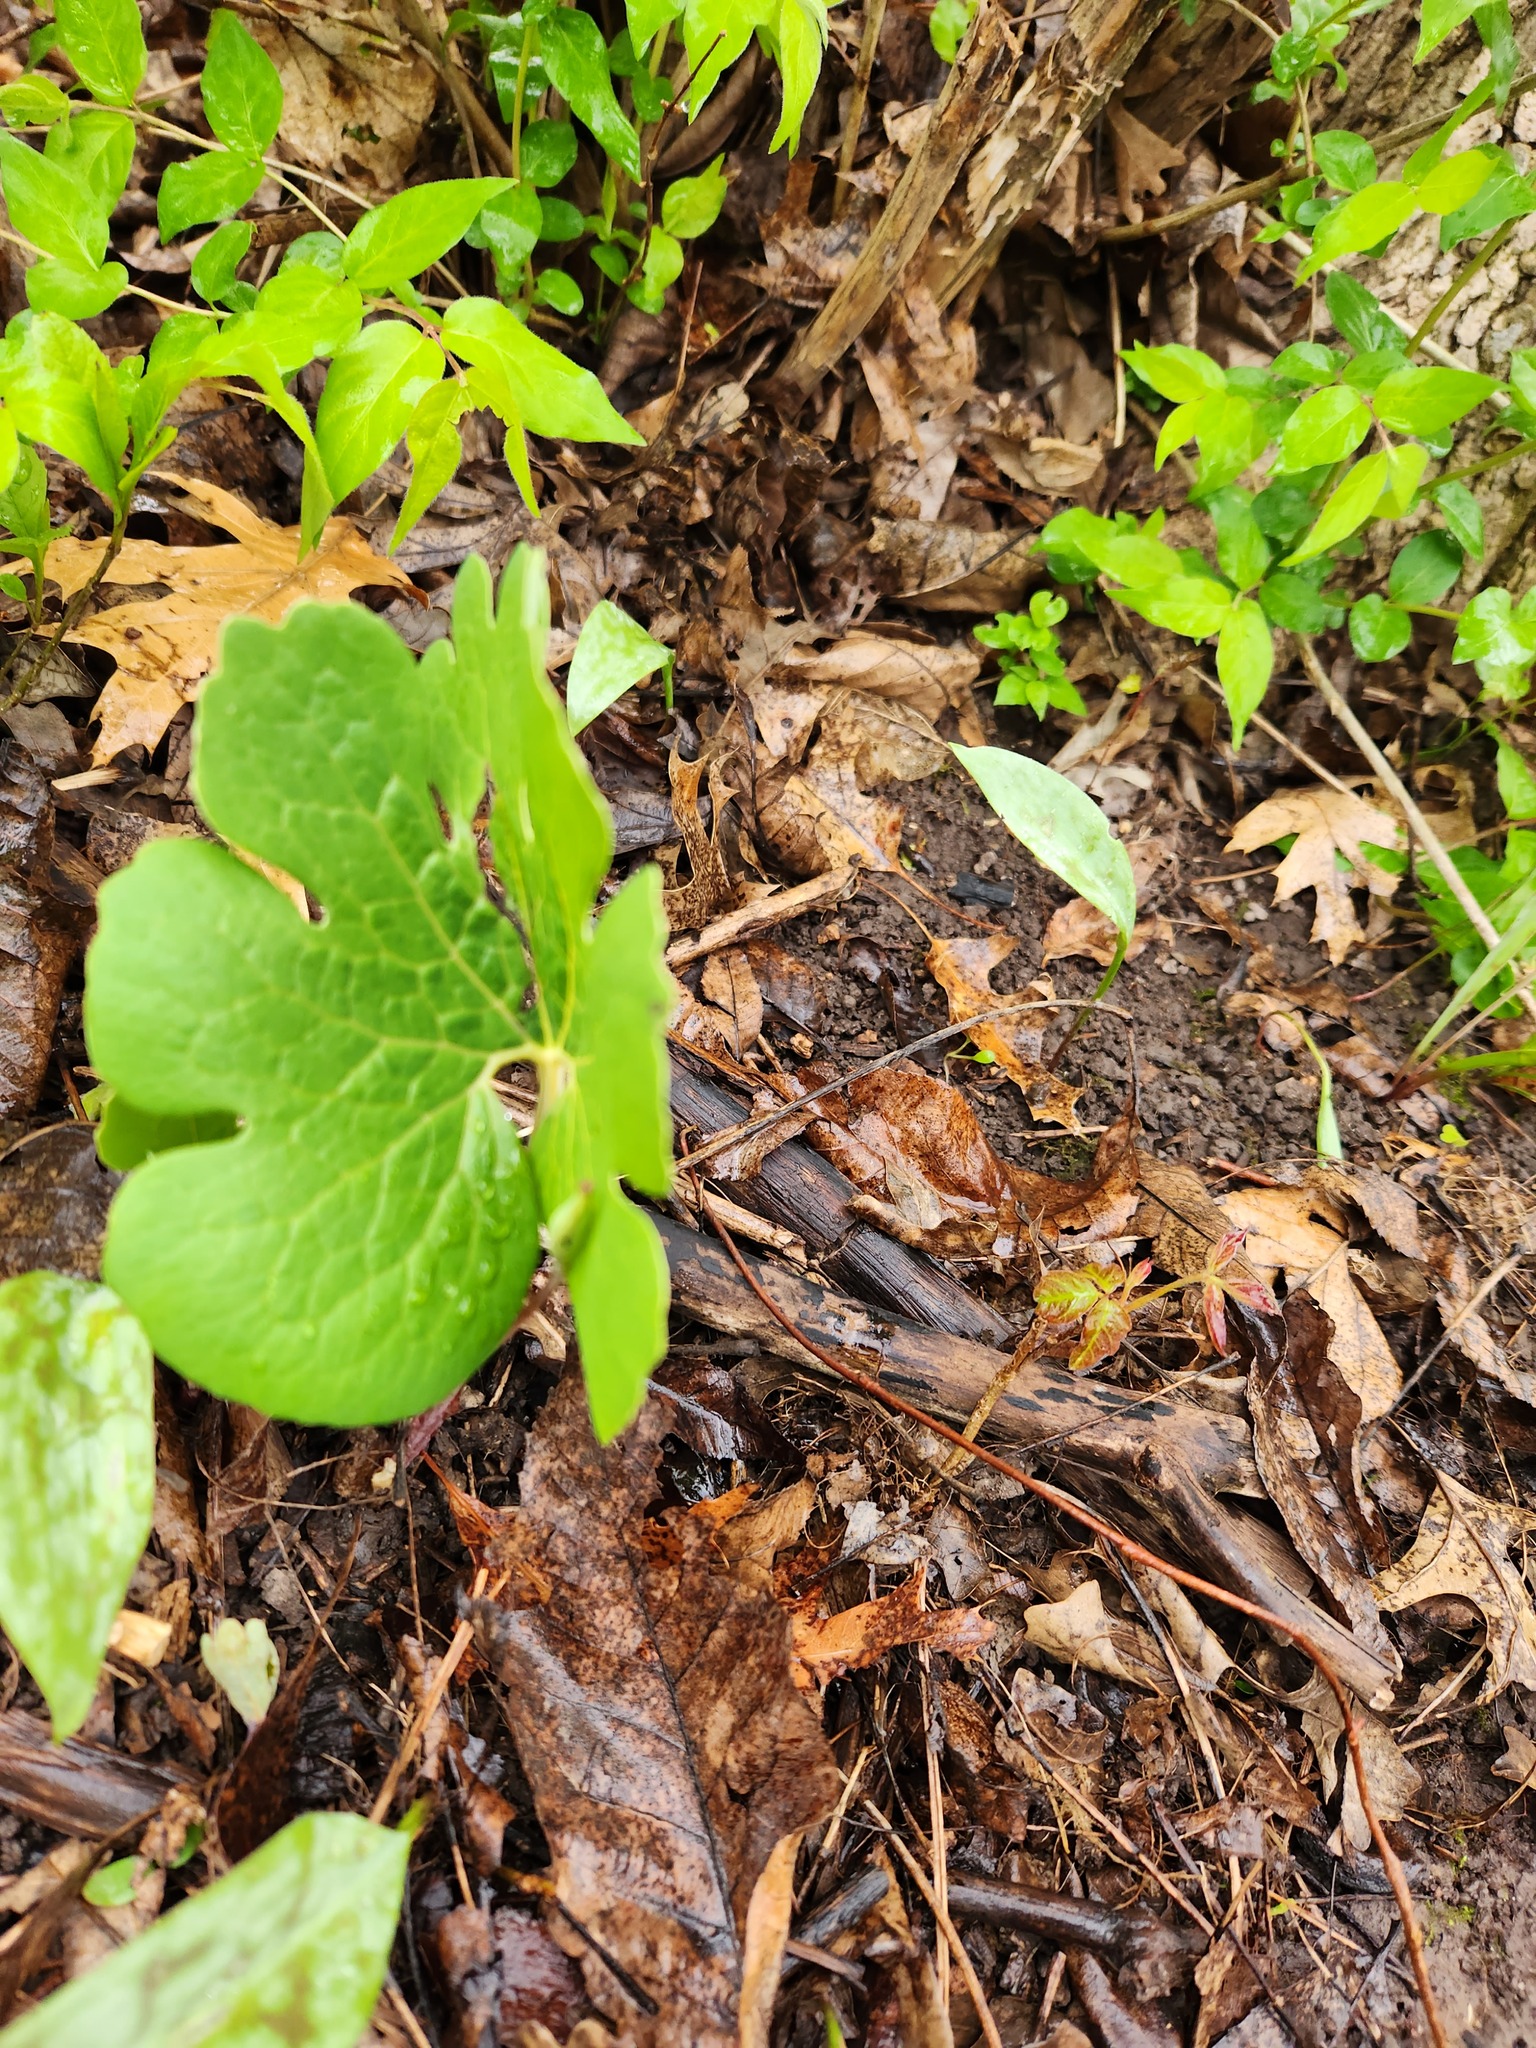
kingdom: Plantae
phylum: Tracheophyta
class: Magnoliopsida
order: Ranunculales
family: Papaveraceae
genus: Sanguinaria
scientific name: Sanguinaria canadensis
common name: Bloodroot
